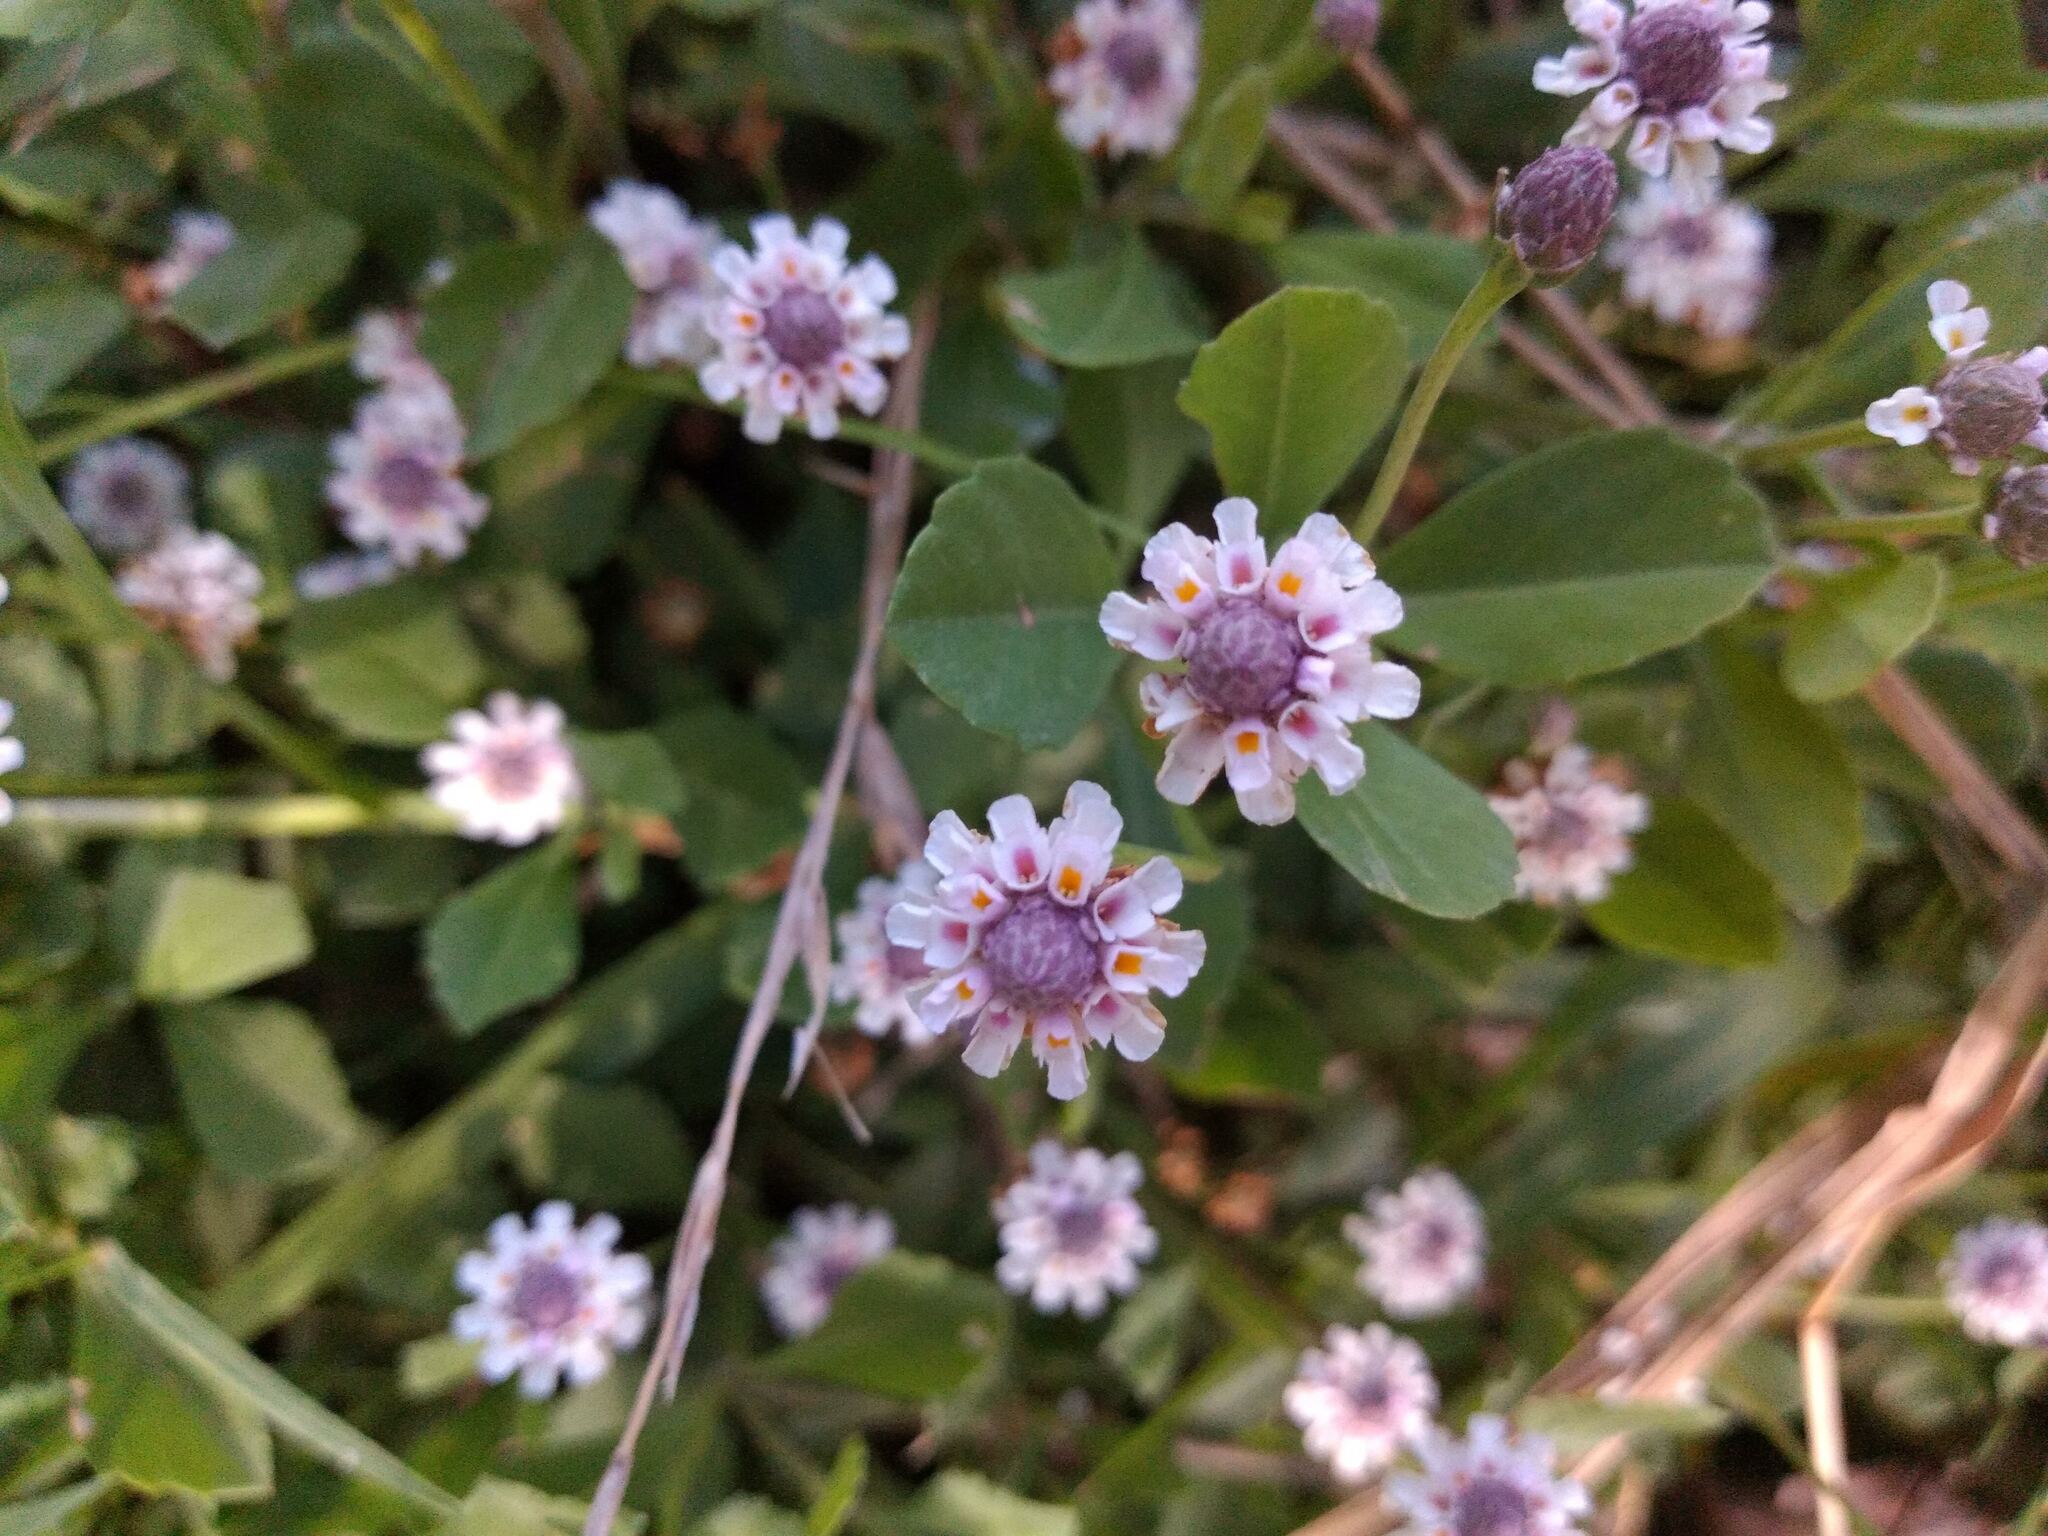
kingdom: Plantae
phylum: Tracheophyta
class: Magnoliopsida
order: Lamiales
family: Verbenaceae
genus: Phyla
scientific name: Phyla nodiflora
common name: Frogfruit
